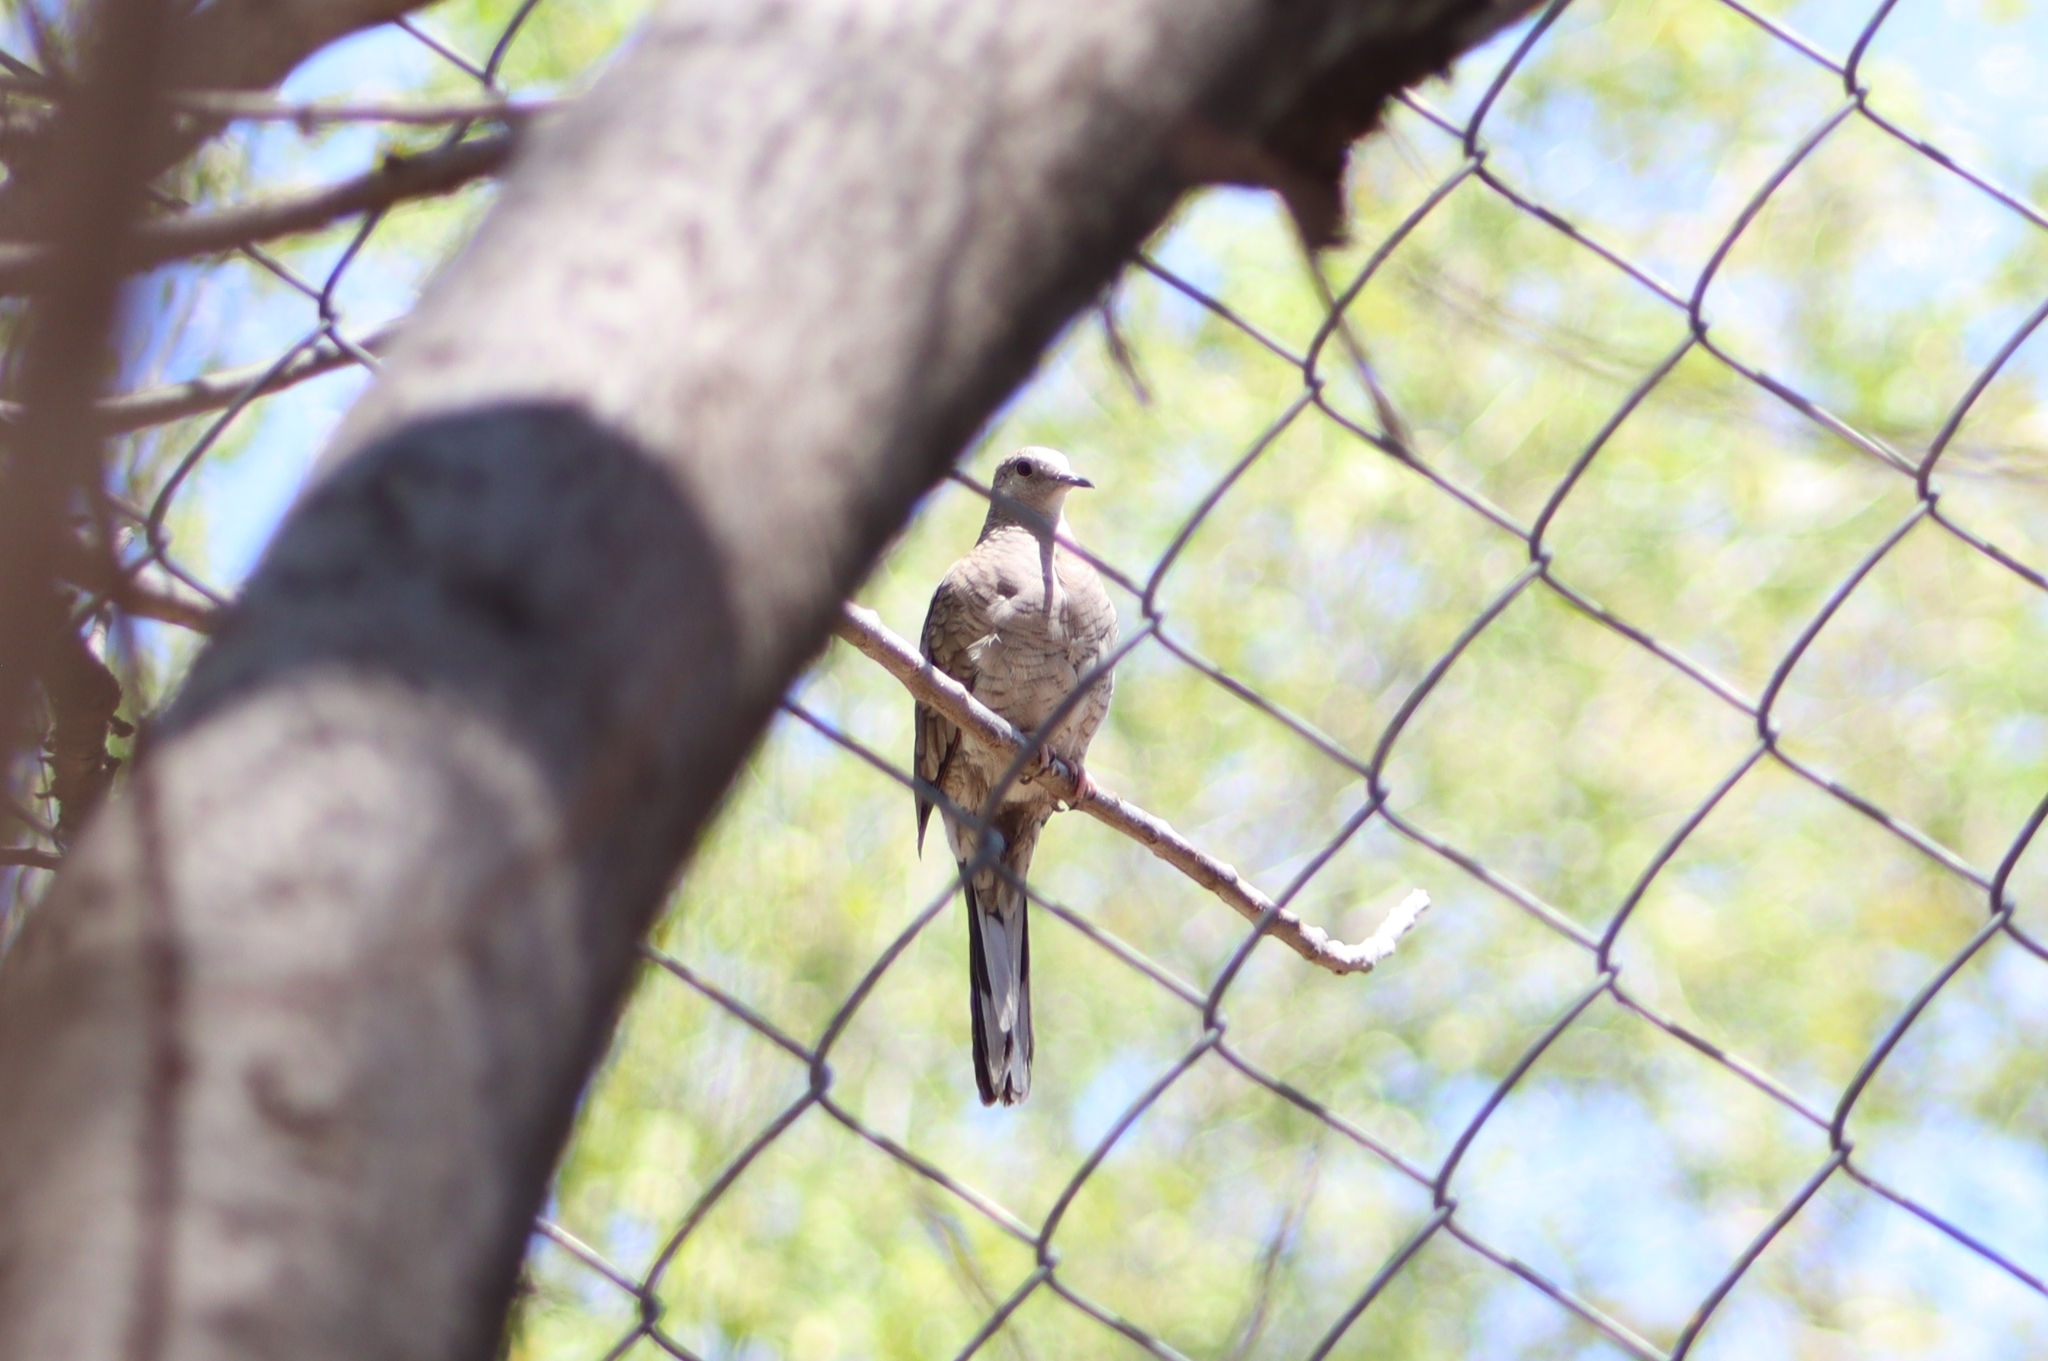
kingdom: Animalia
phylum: Chordata
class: Aves
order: Columbiformes
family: Columbidae
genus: Columbina
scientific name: Columbina inca
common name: Inca dove
